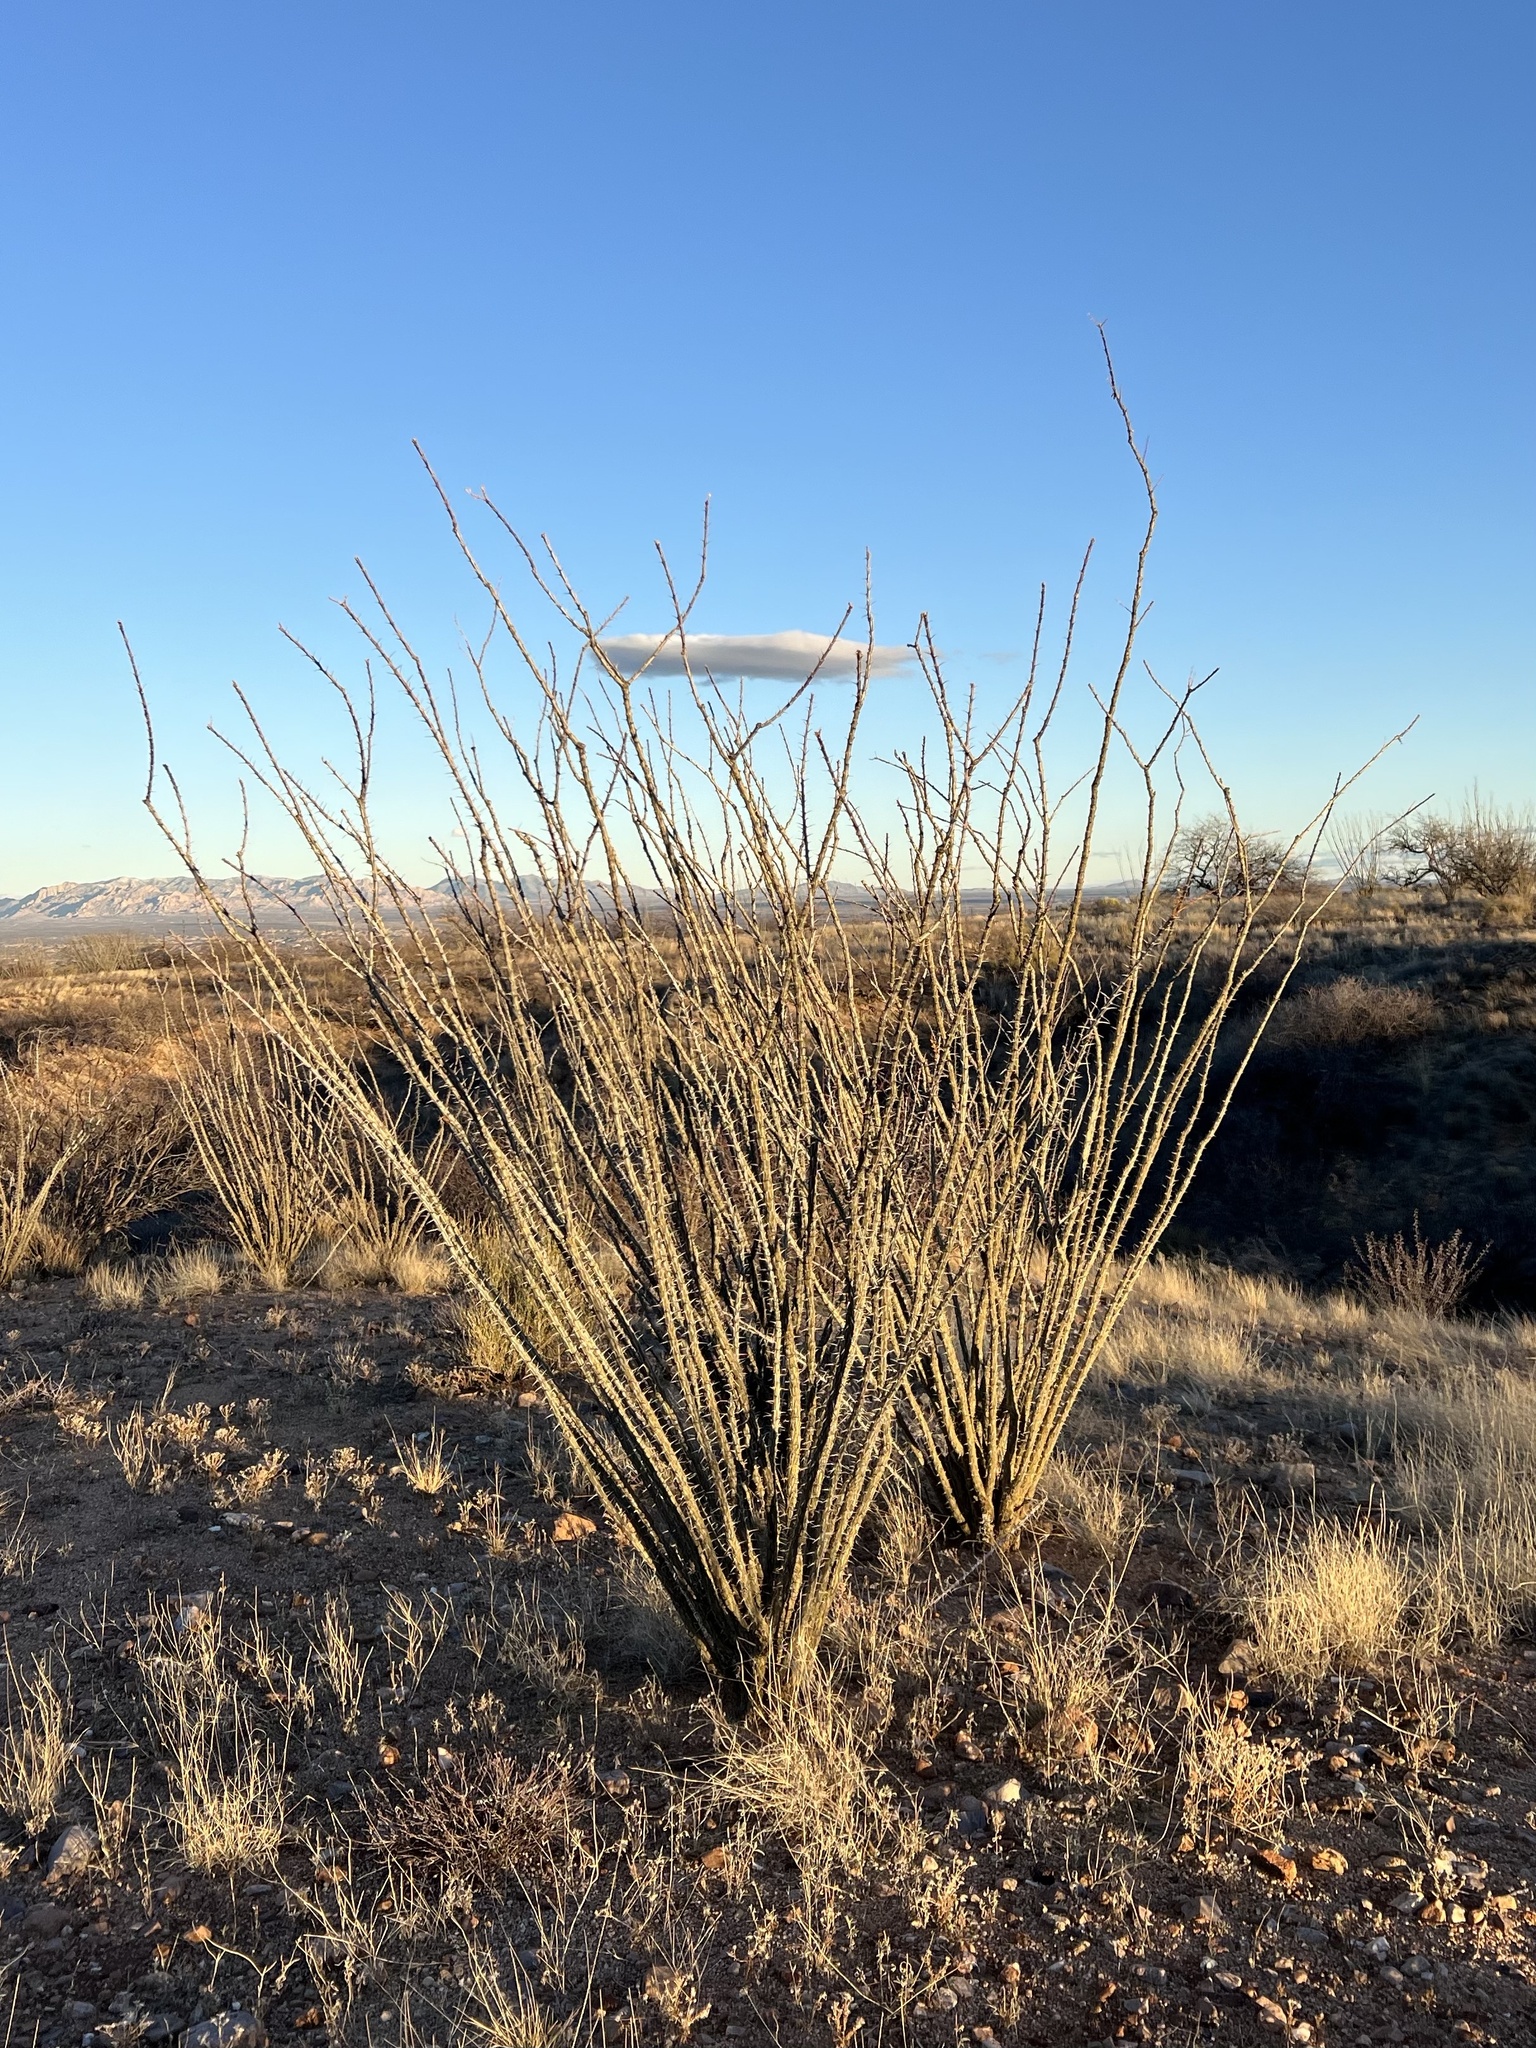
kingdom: Plantae
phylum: Tracheophyta
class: Magnoliopsida
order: Ericales
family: Fouquieriaceae
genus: Fouquieria
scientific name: Fouquieria splendens
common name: Vine-cactus
